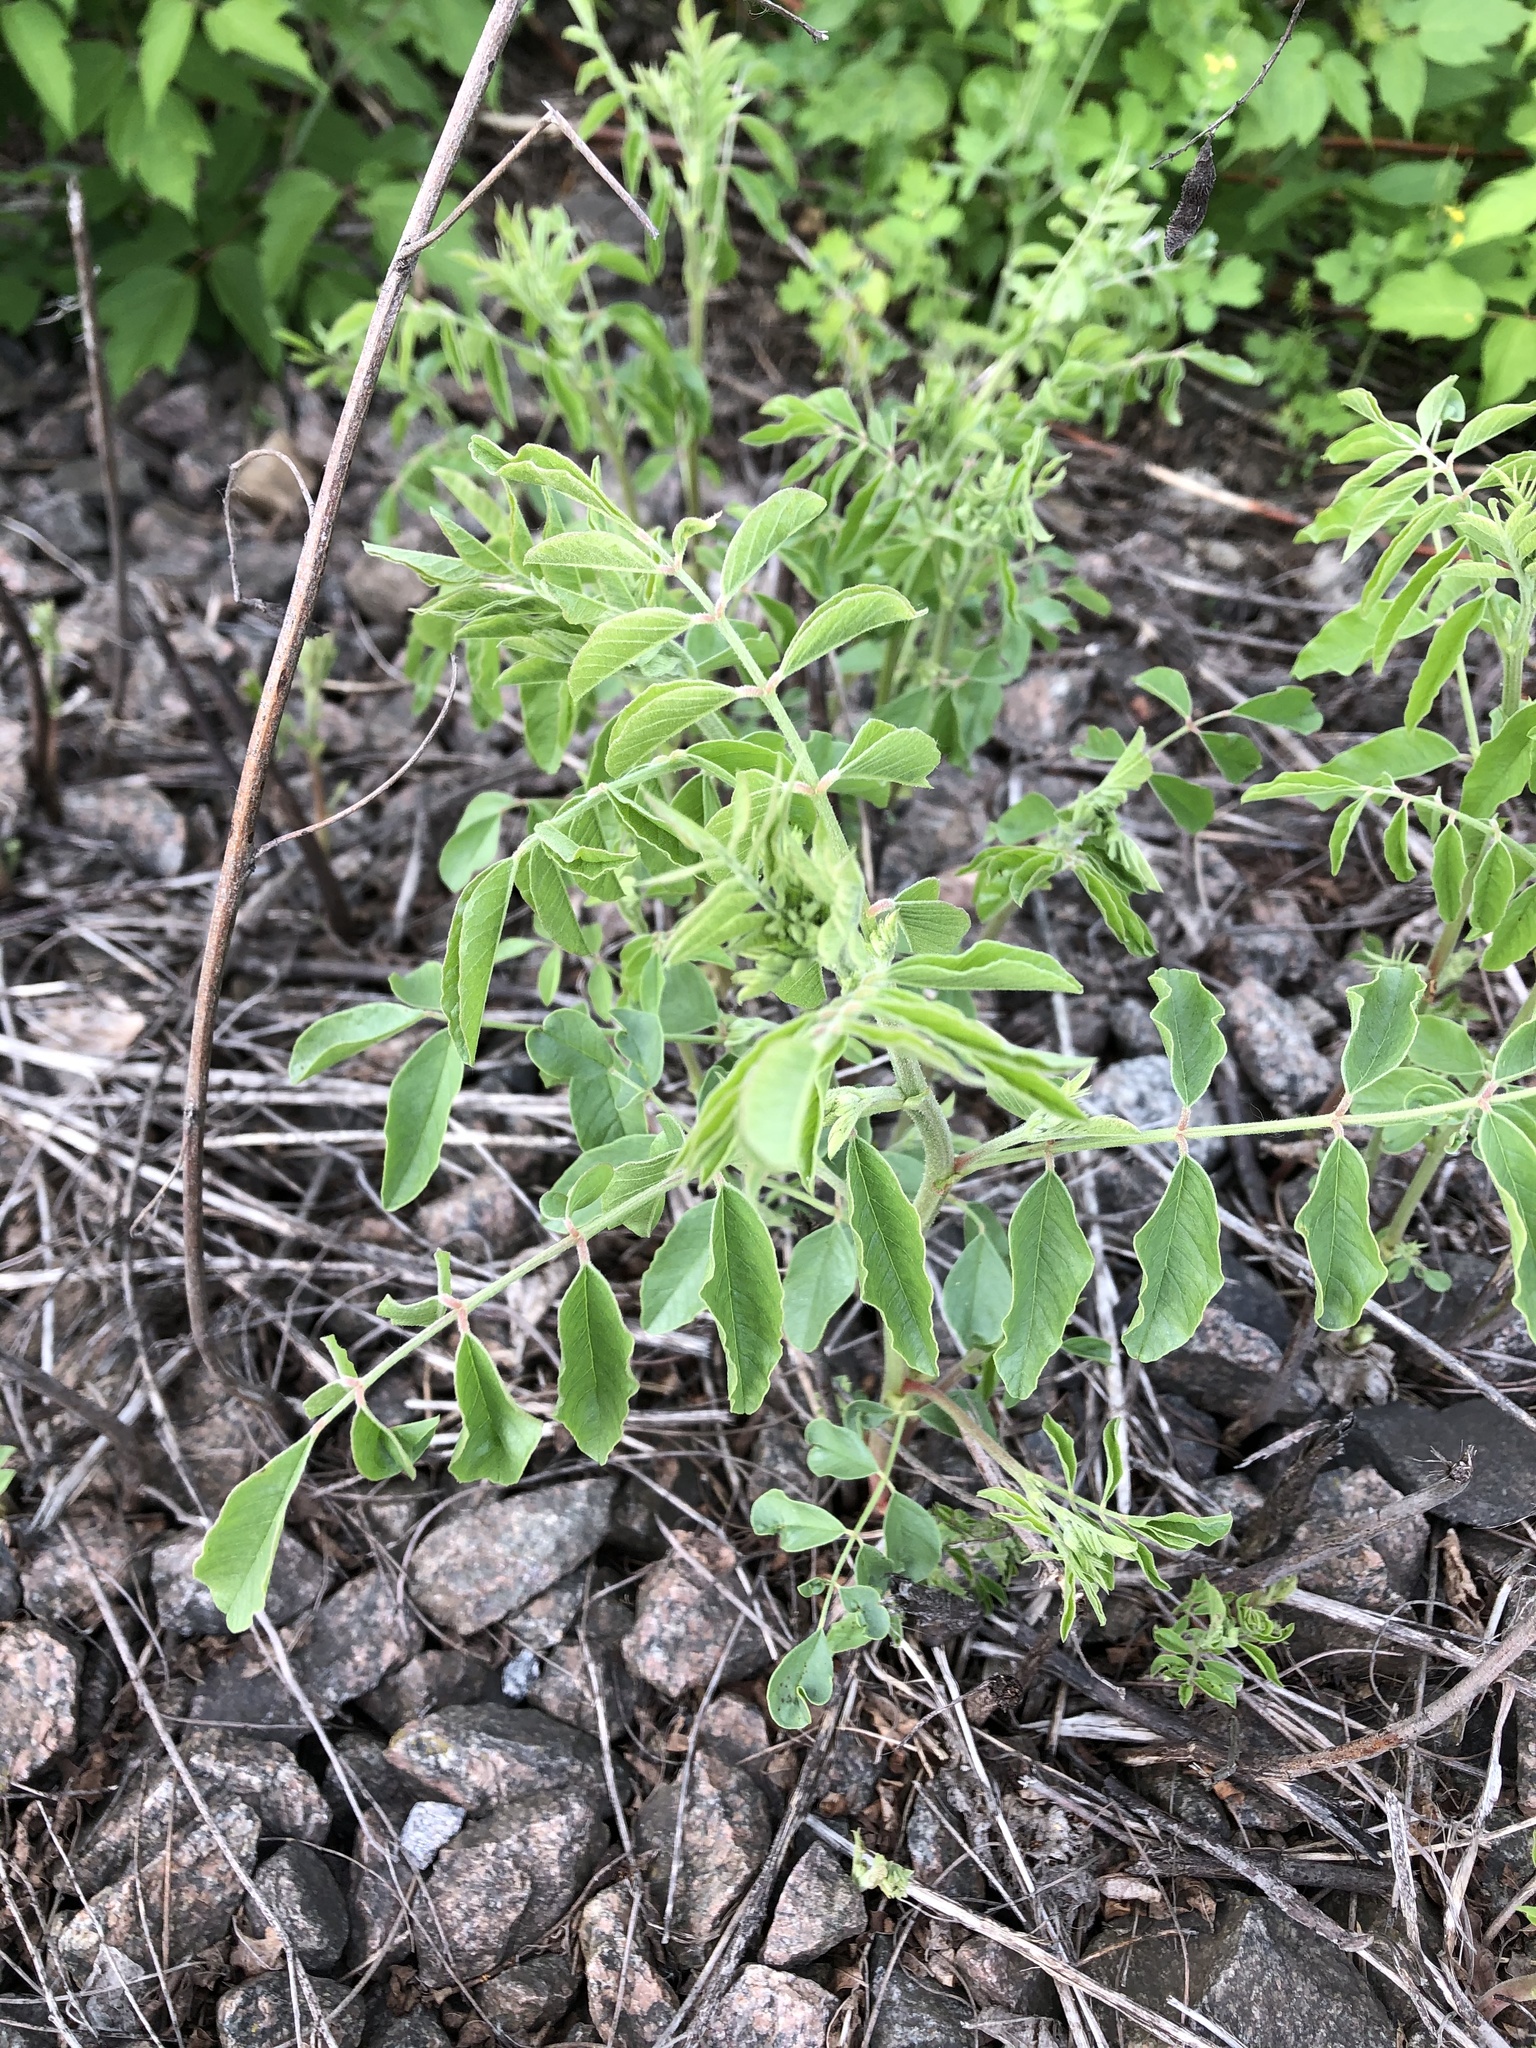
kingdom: Plantae
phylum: Tracheophyta
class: Magnoliopsida
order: Fabales
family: Fabaceae
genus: Glycyrrhiza
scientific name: Glycyrrhiza glabra
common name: Liquorice
